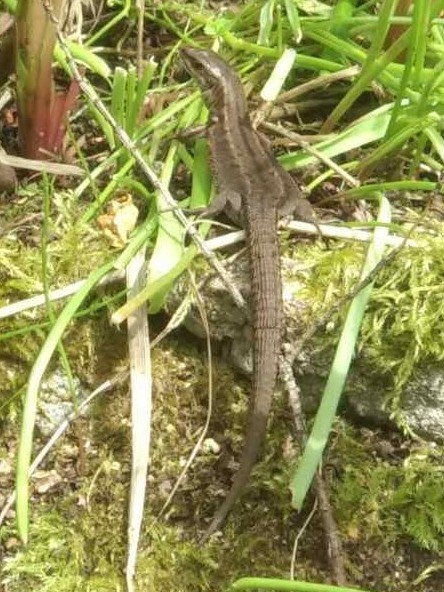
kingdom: Animalia
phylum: Chordata
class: Squamata
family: Lacertidae
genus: Zootoca
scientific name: Zootoca vivipara
